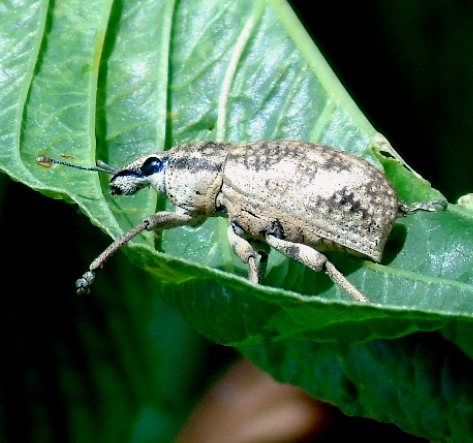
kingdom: Animalia
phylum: Arthropoda
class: Insecta
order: Coleoptera
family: Curculionidae
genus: Epicaerus
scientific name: Epicaerus
